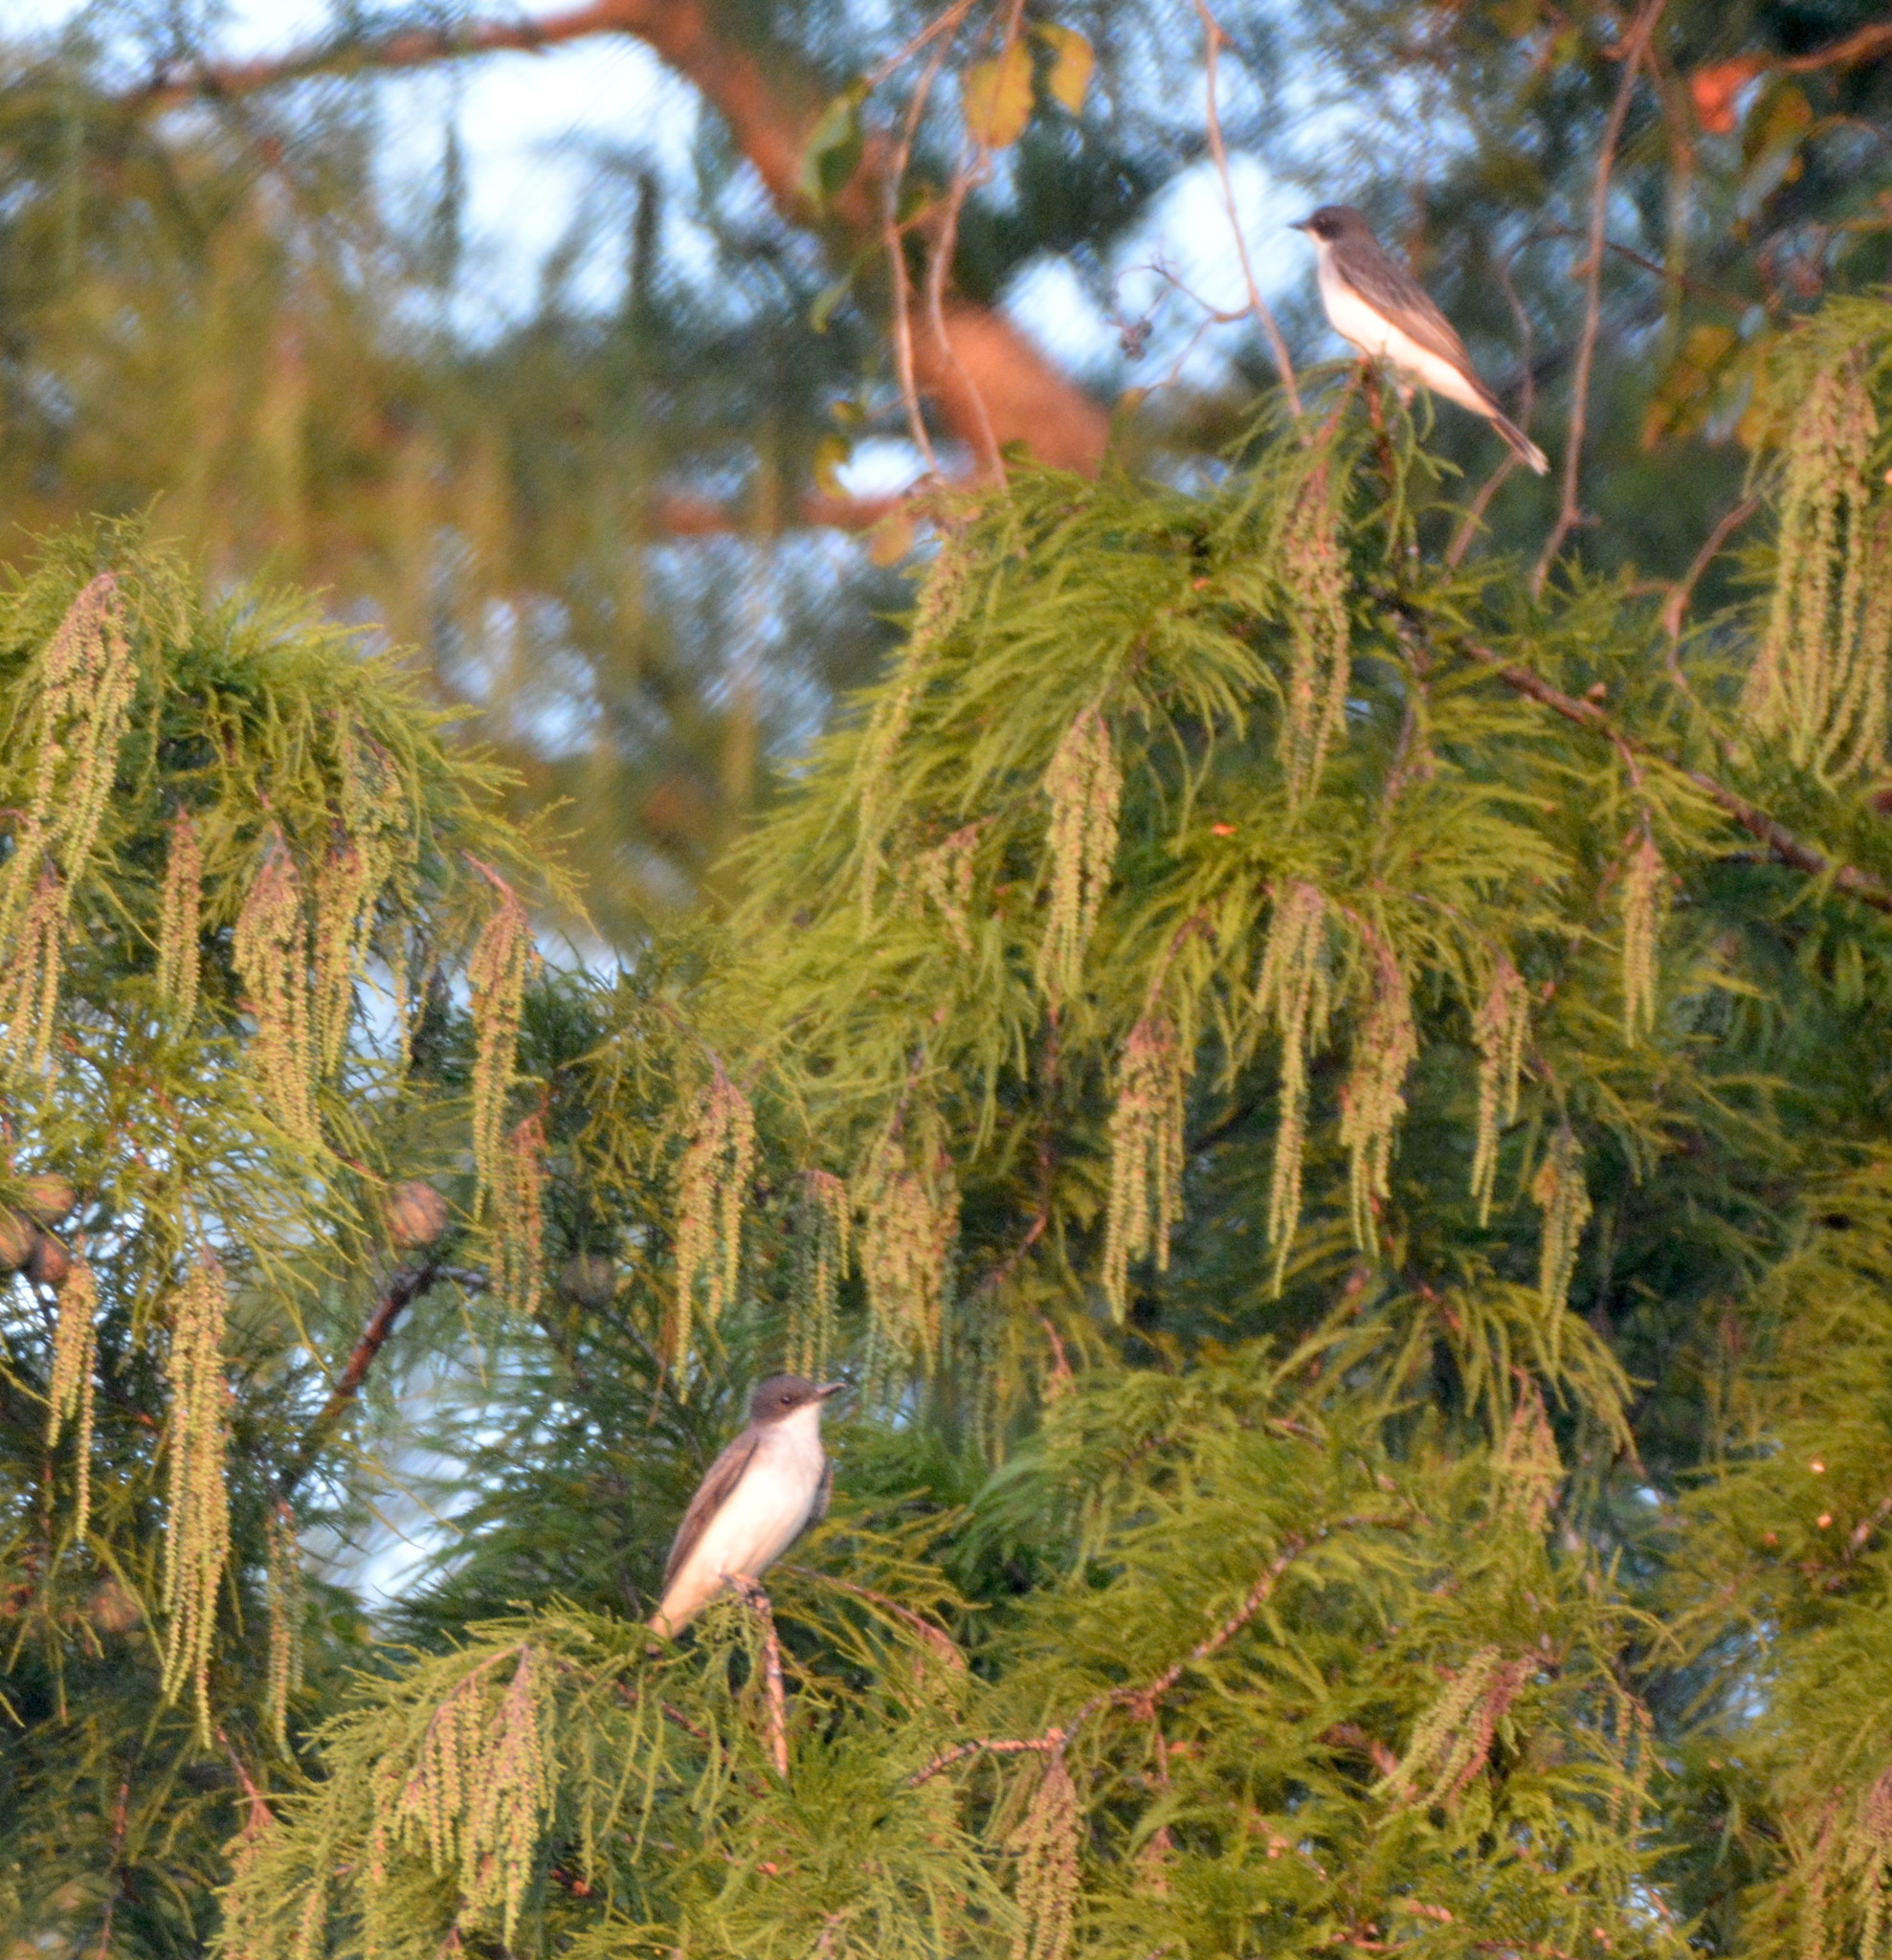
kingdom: Animalia
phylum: Chordata
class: Aves
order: Passeriformes
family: Tyrannidae
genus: Tyrannus
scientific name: Tyrannus tyrannus
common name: Eastern kingbird
